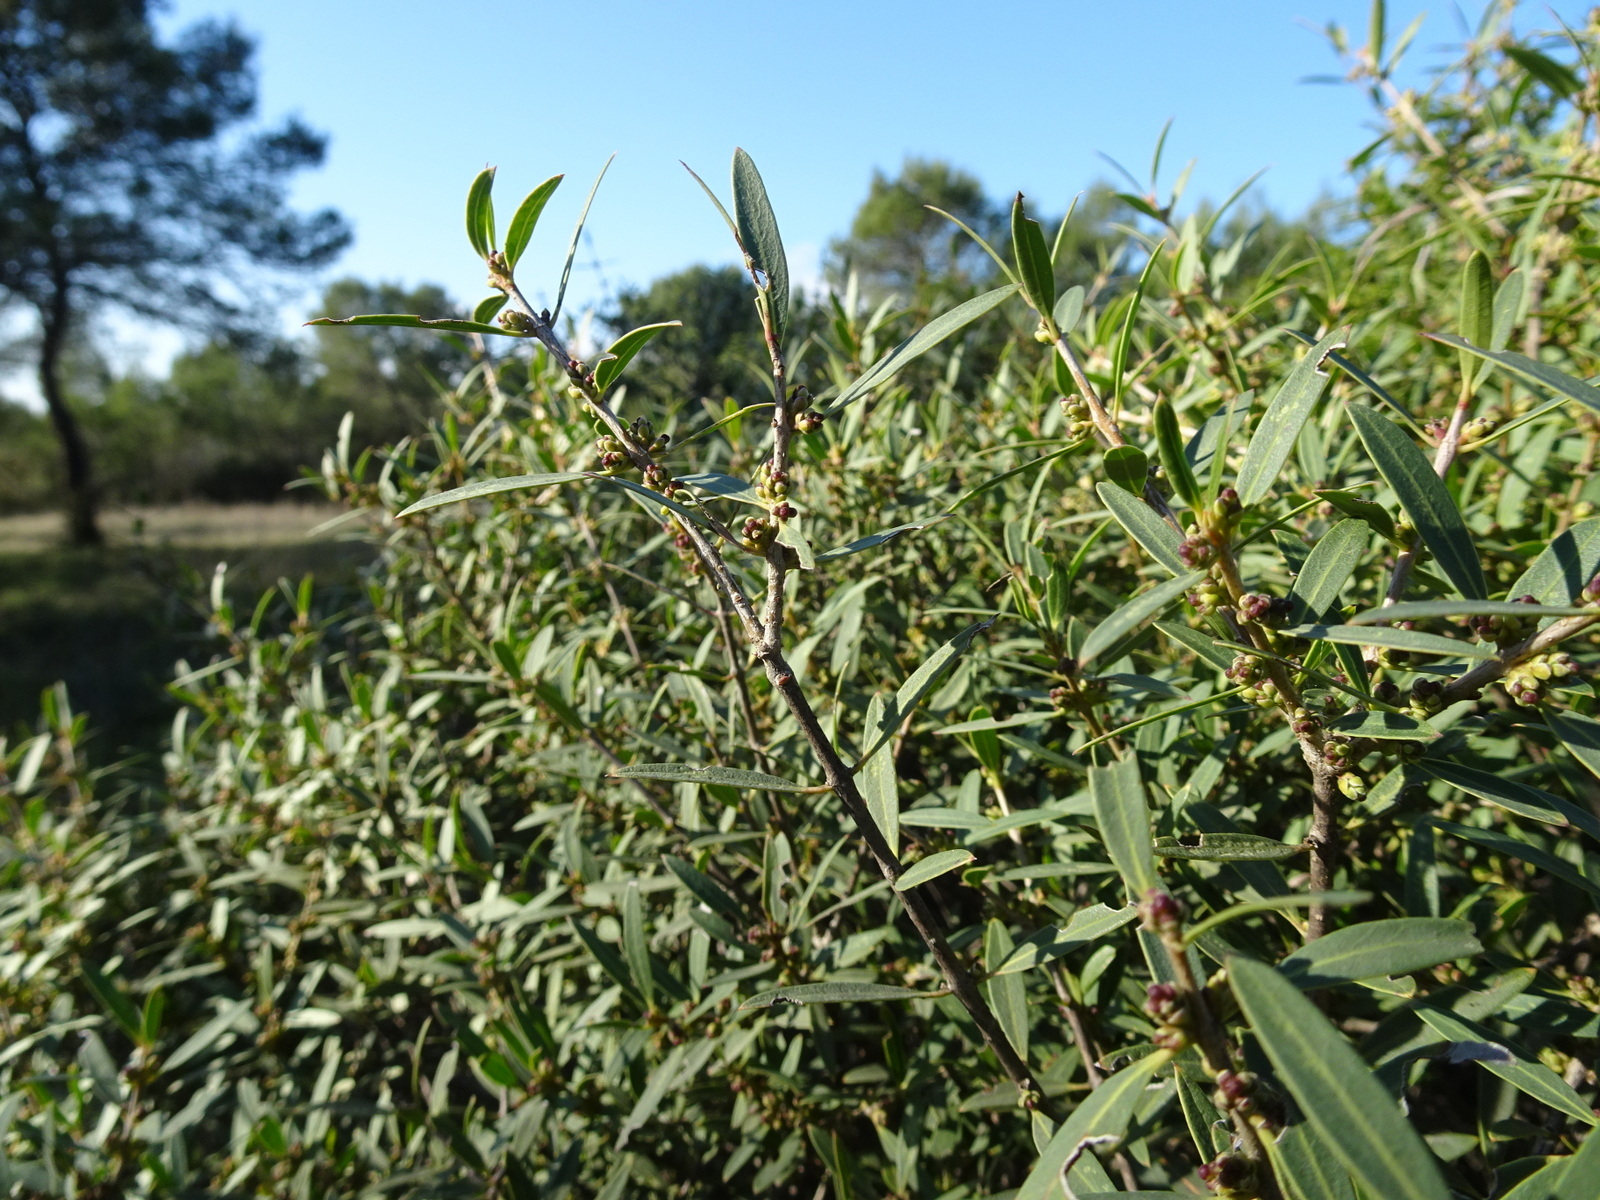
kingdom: Plantae
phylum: Tracheophyta
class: Magnoliopsida
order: Lamiales
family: Oleaceae
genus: Phillyrea
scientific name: Phillyrea angustifolia
